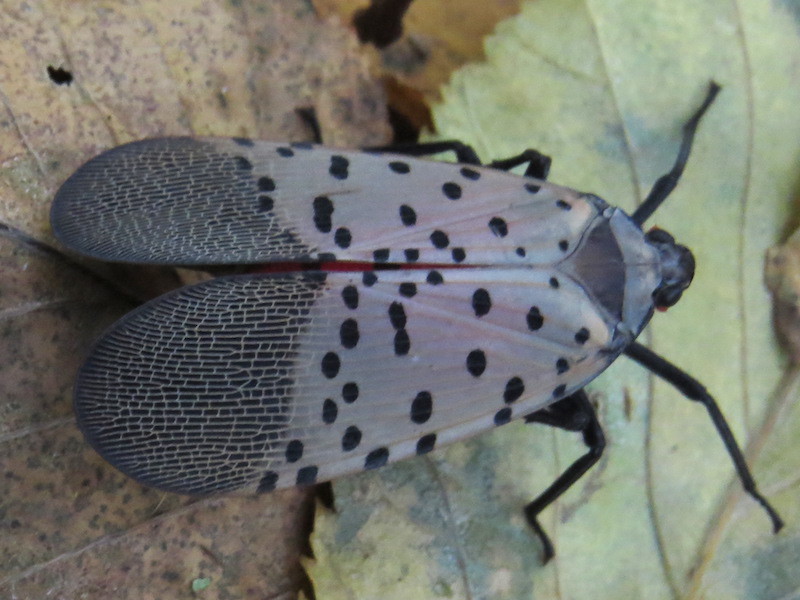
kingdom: Animalia
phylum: Arthropoda
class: Insecta
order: Hemiptera
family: Fulgoridae
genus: Lycorma
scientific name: Lycorma delicatula
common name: Spotted lanternfly
